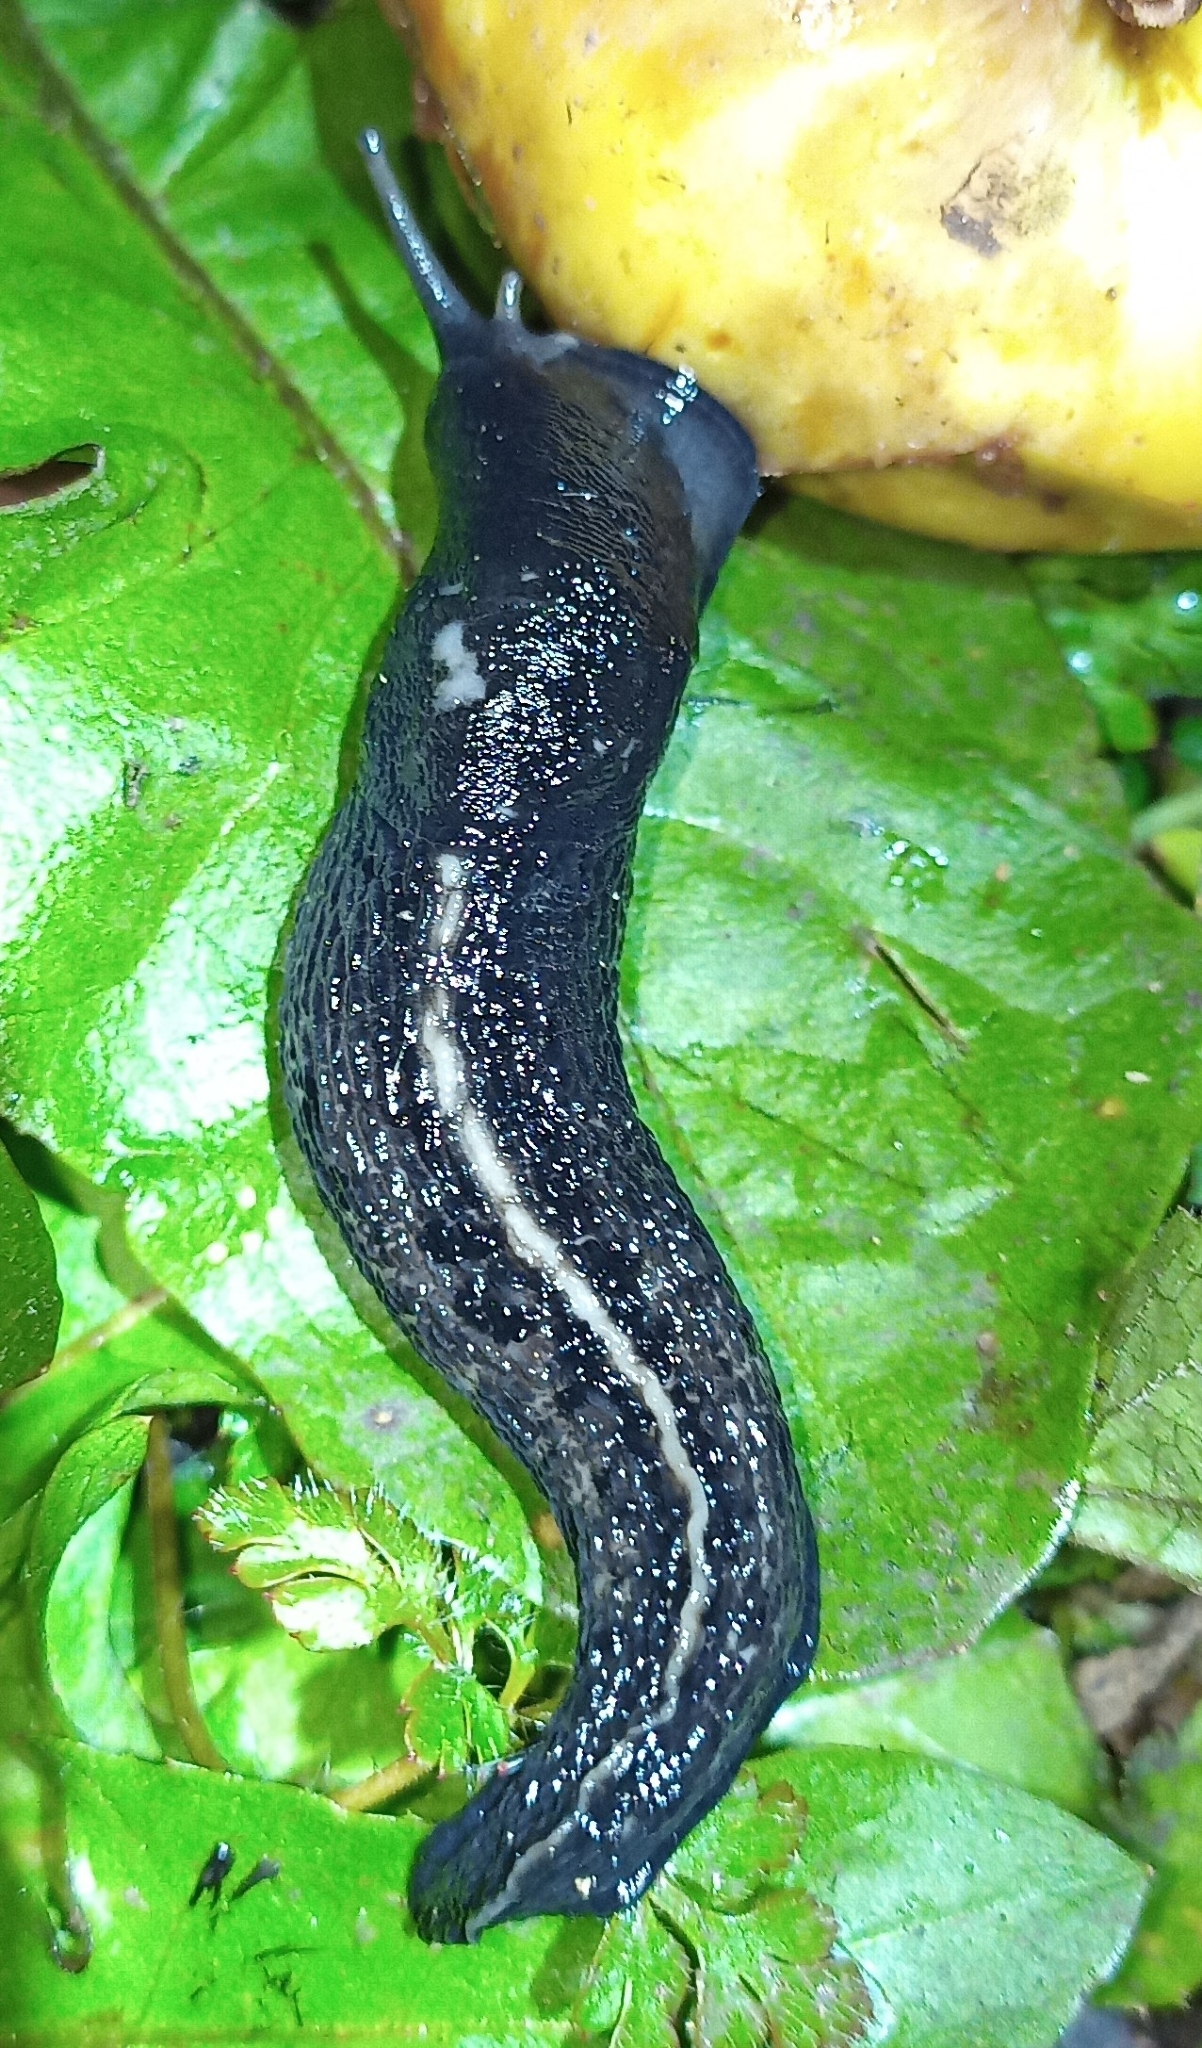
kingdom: Animalia
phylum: Mollusca
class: Gastropoda
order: Stylommatophora
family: Limacidae
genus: Limax
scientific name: Limax cinereoniger
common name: Ash-black slug
